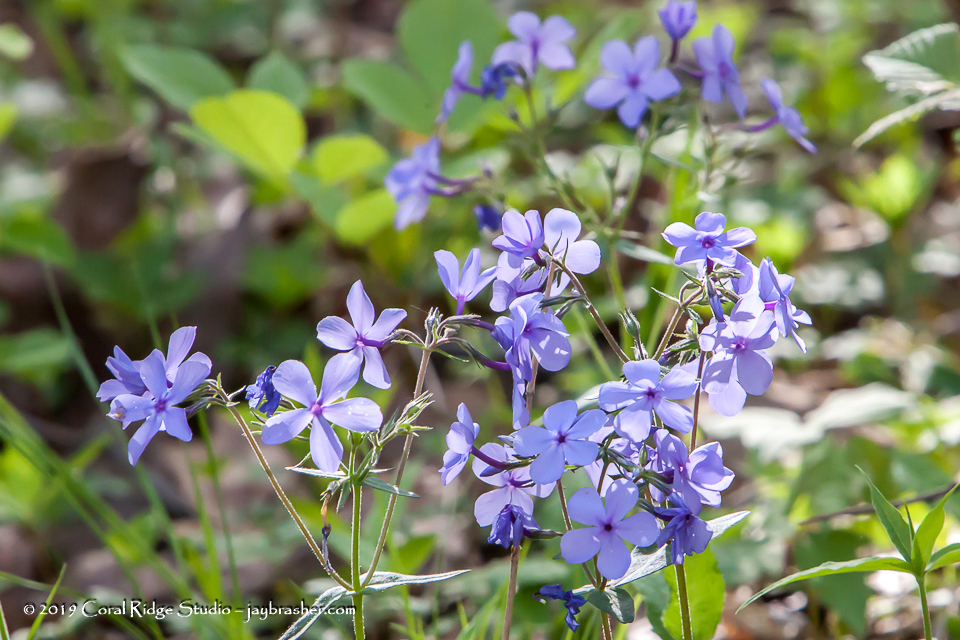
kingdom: Plantae
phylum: Tracheophyta
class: Magnoliopsida
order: Ericales
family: Polemoniaceae
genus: Phlox
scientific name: Phlox divaricata
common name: Blue phlox
